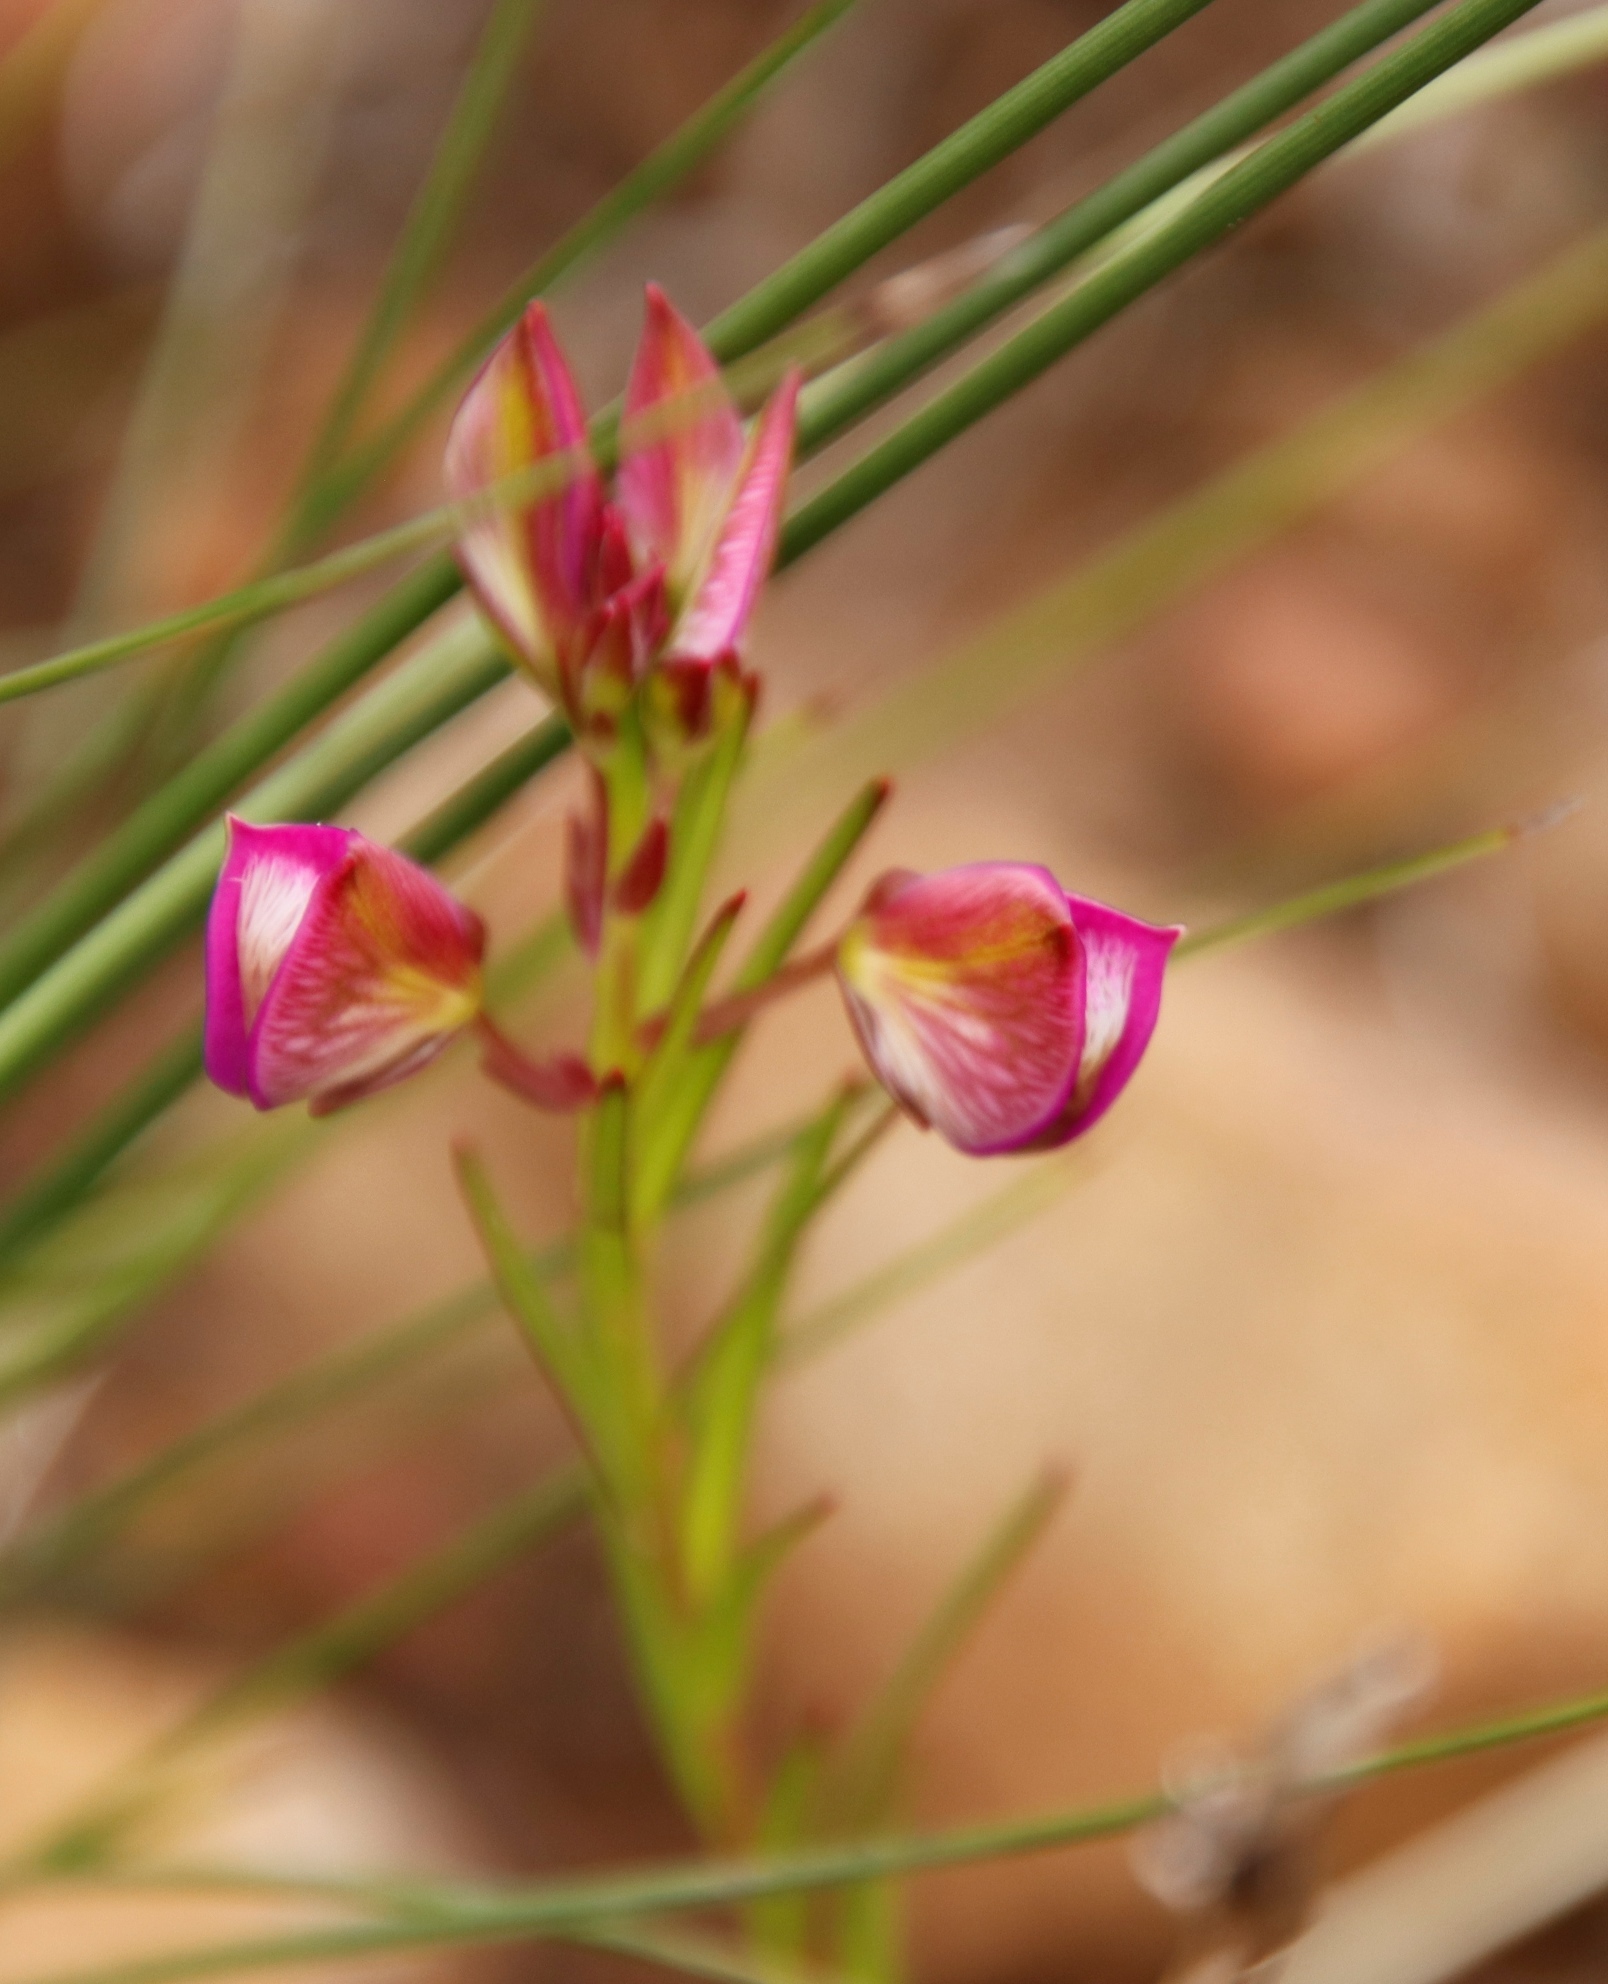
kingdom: Plantae
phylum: Tracheophyta
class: Magnoliopsida
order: Fabales
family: Polygalaceae
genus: Polygala
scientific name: Polygala bracteolata
